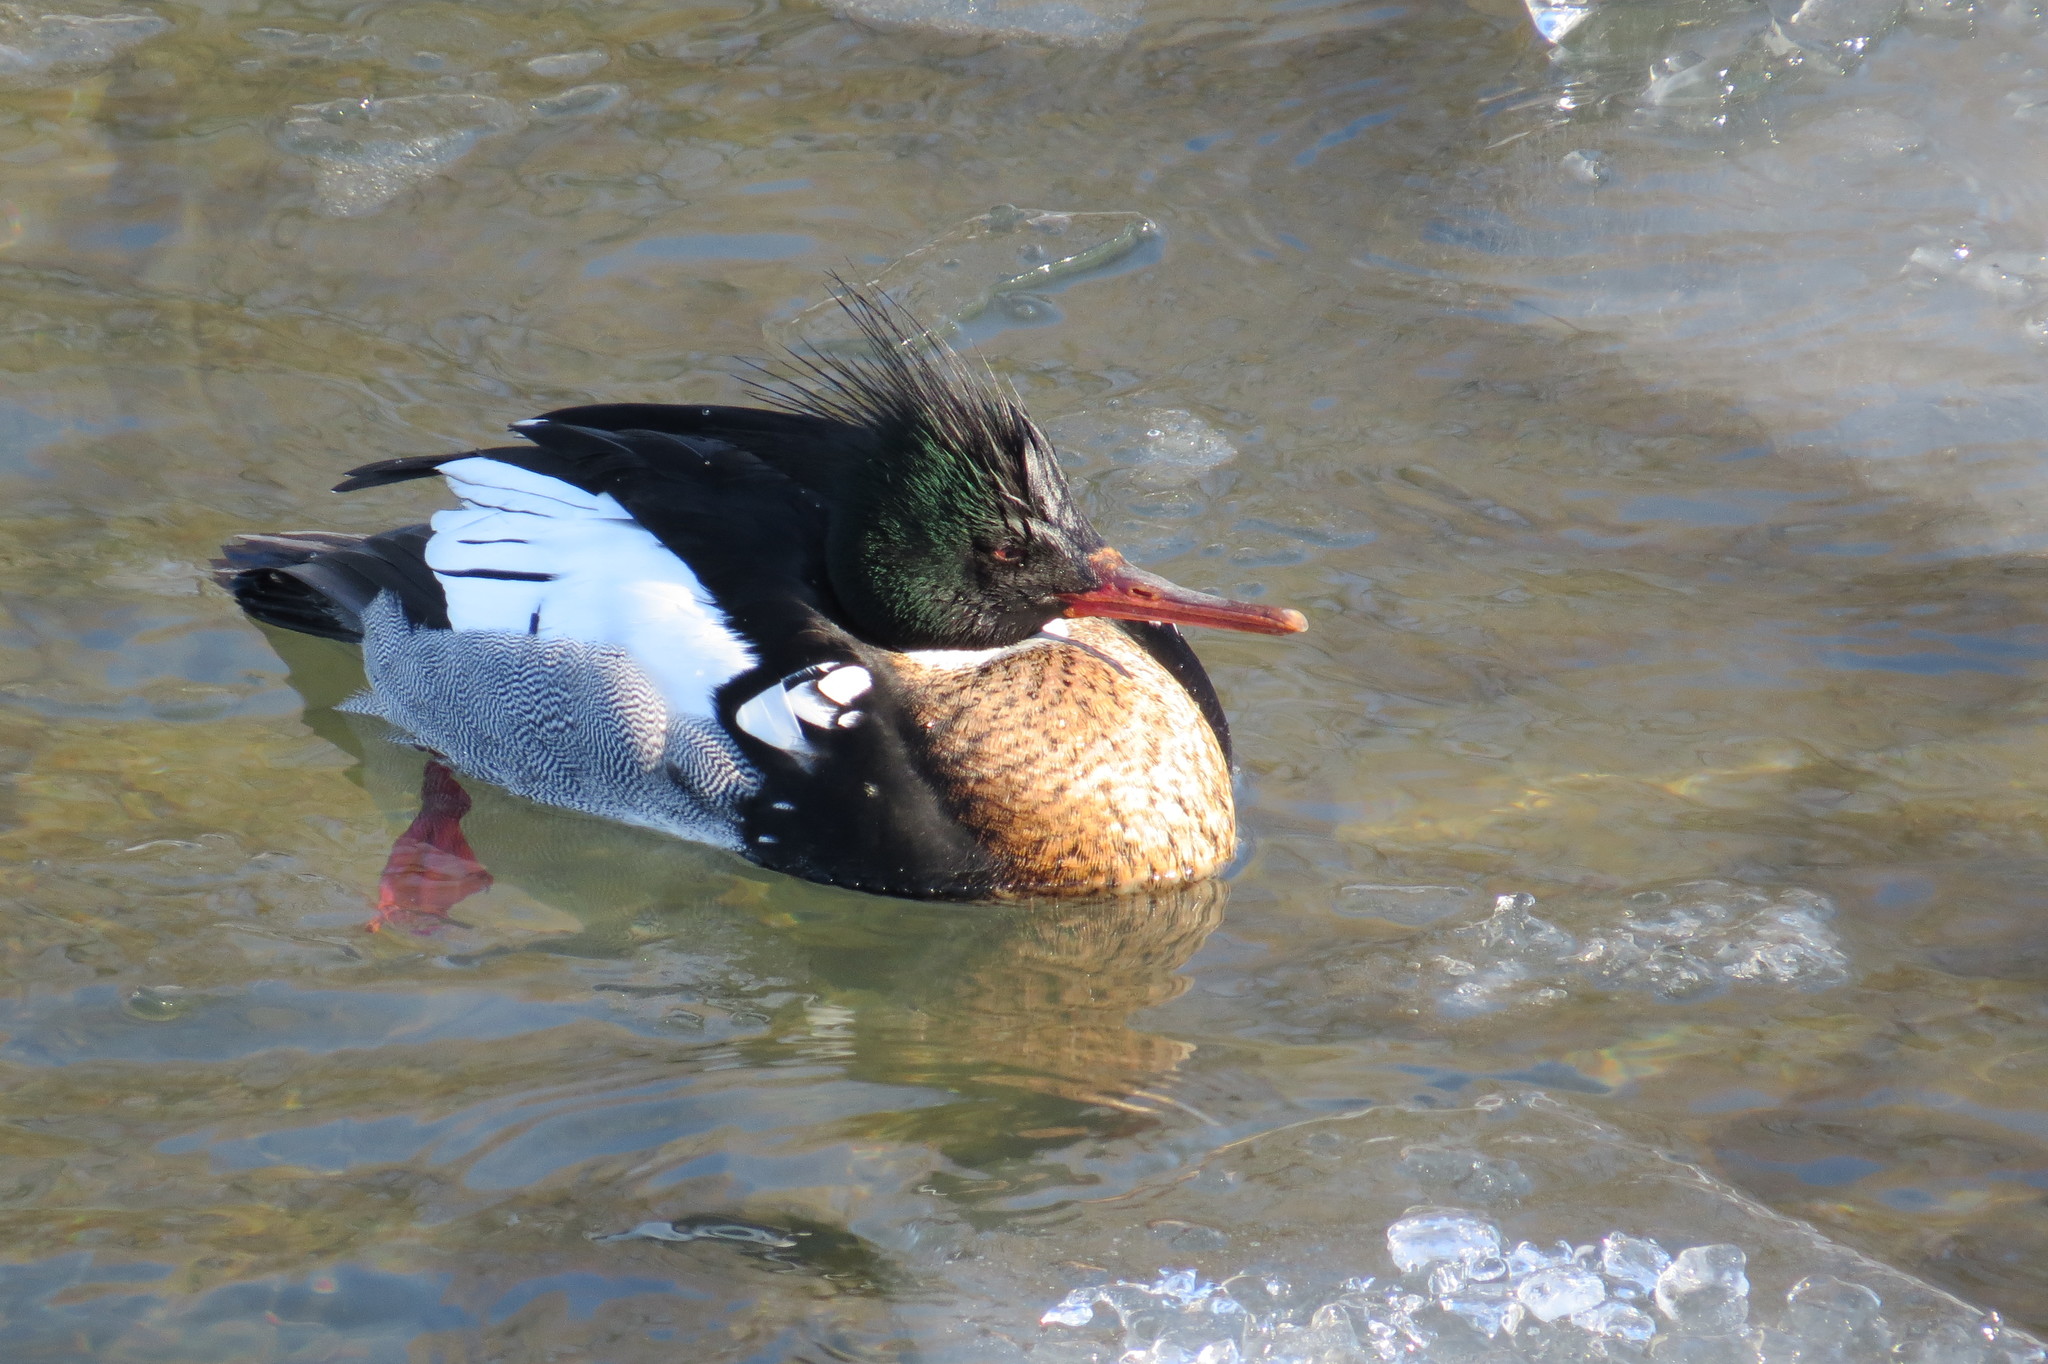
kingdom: Animalia
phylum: Chordata
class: Aves
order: Anseriformes
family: Anatidae
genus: Mergus
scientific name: Mergus serrator
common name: Red-breasted merganser
